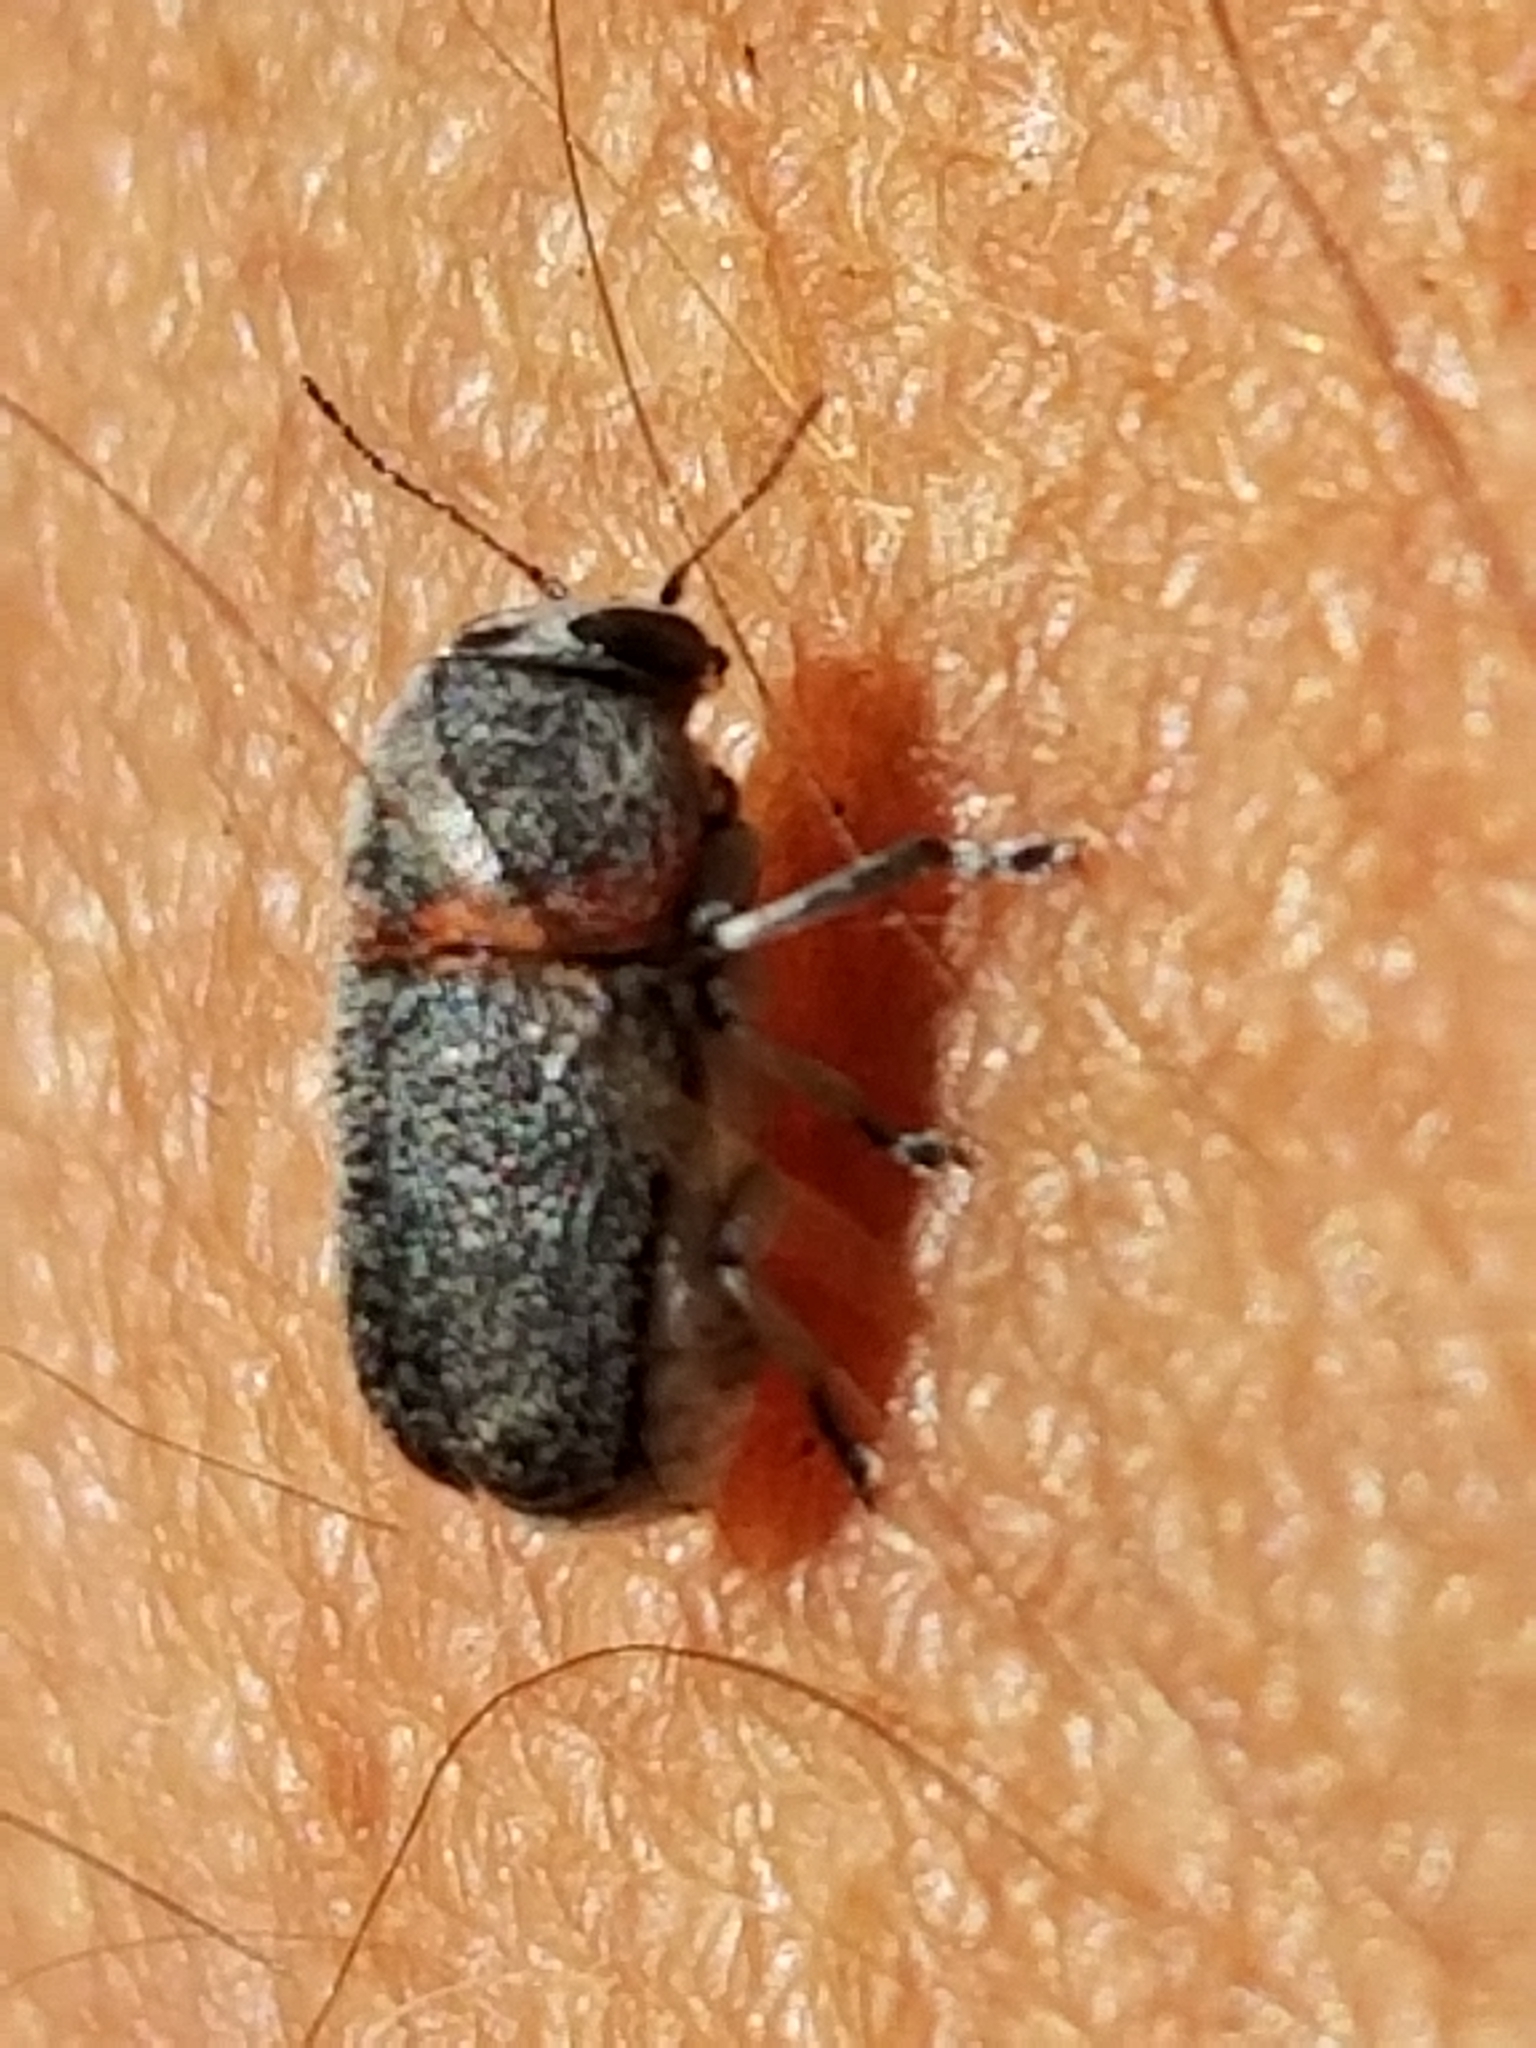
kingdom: Animalia
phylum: Arthropoda
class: Insecta
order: Coleoptera
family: Chrysomelidae
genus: Pachybrachis
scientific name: Pachybrachis thoracicus
